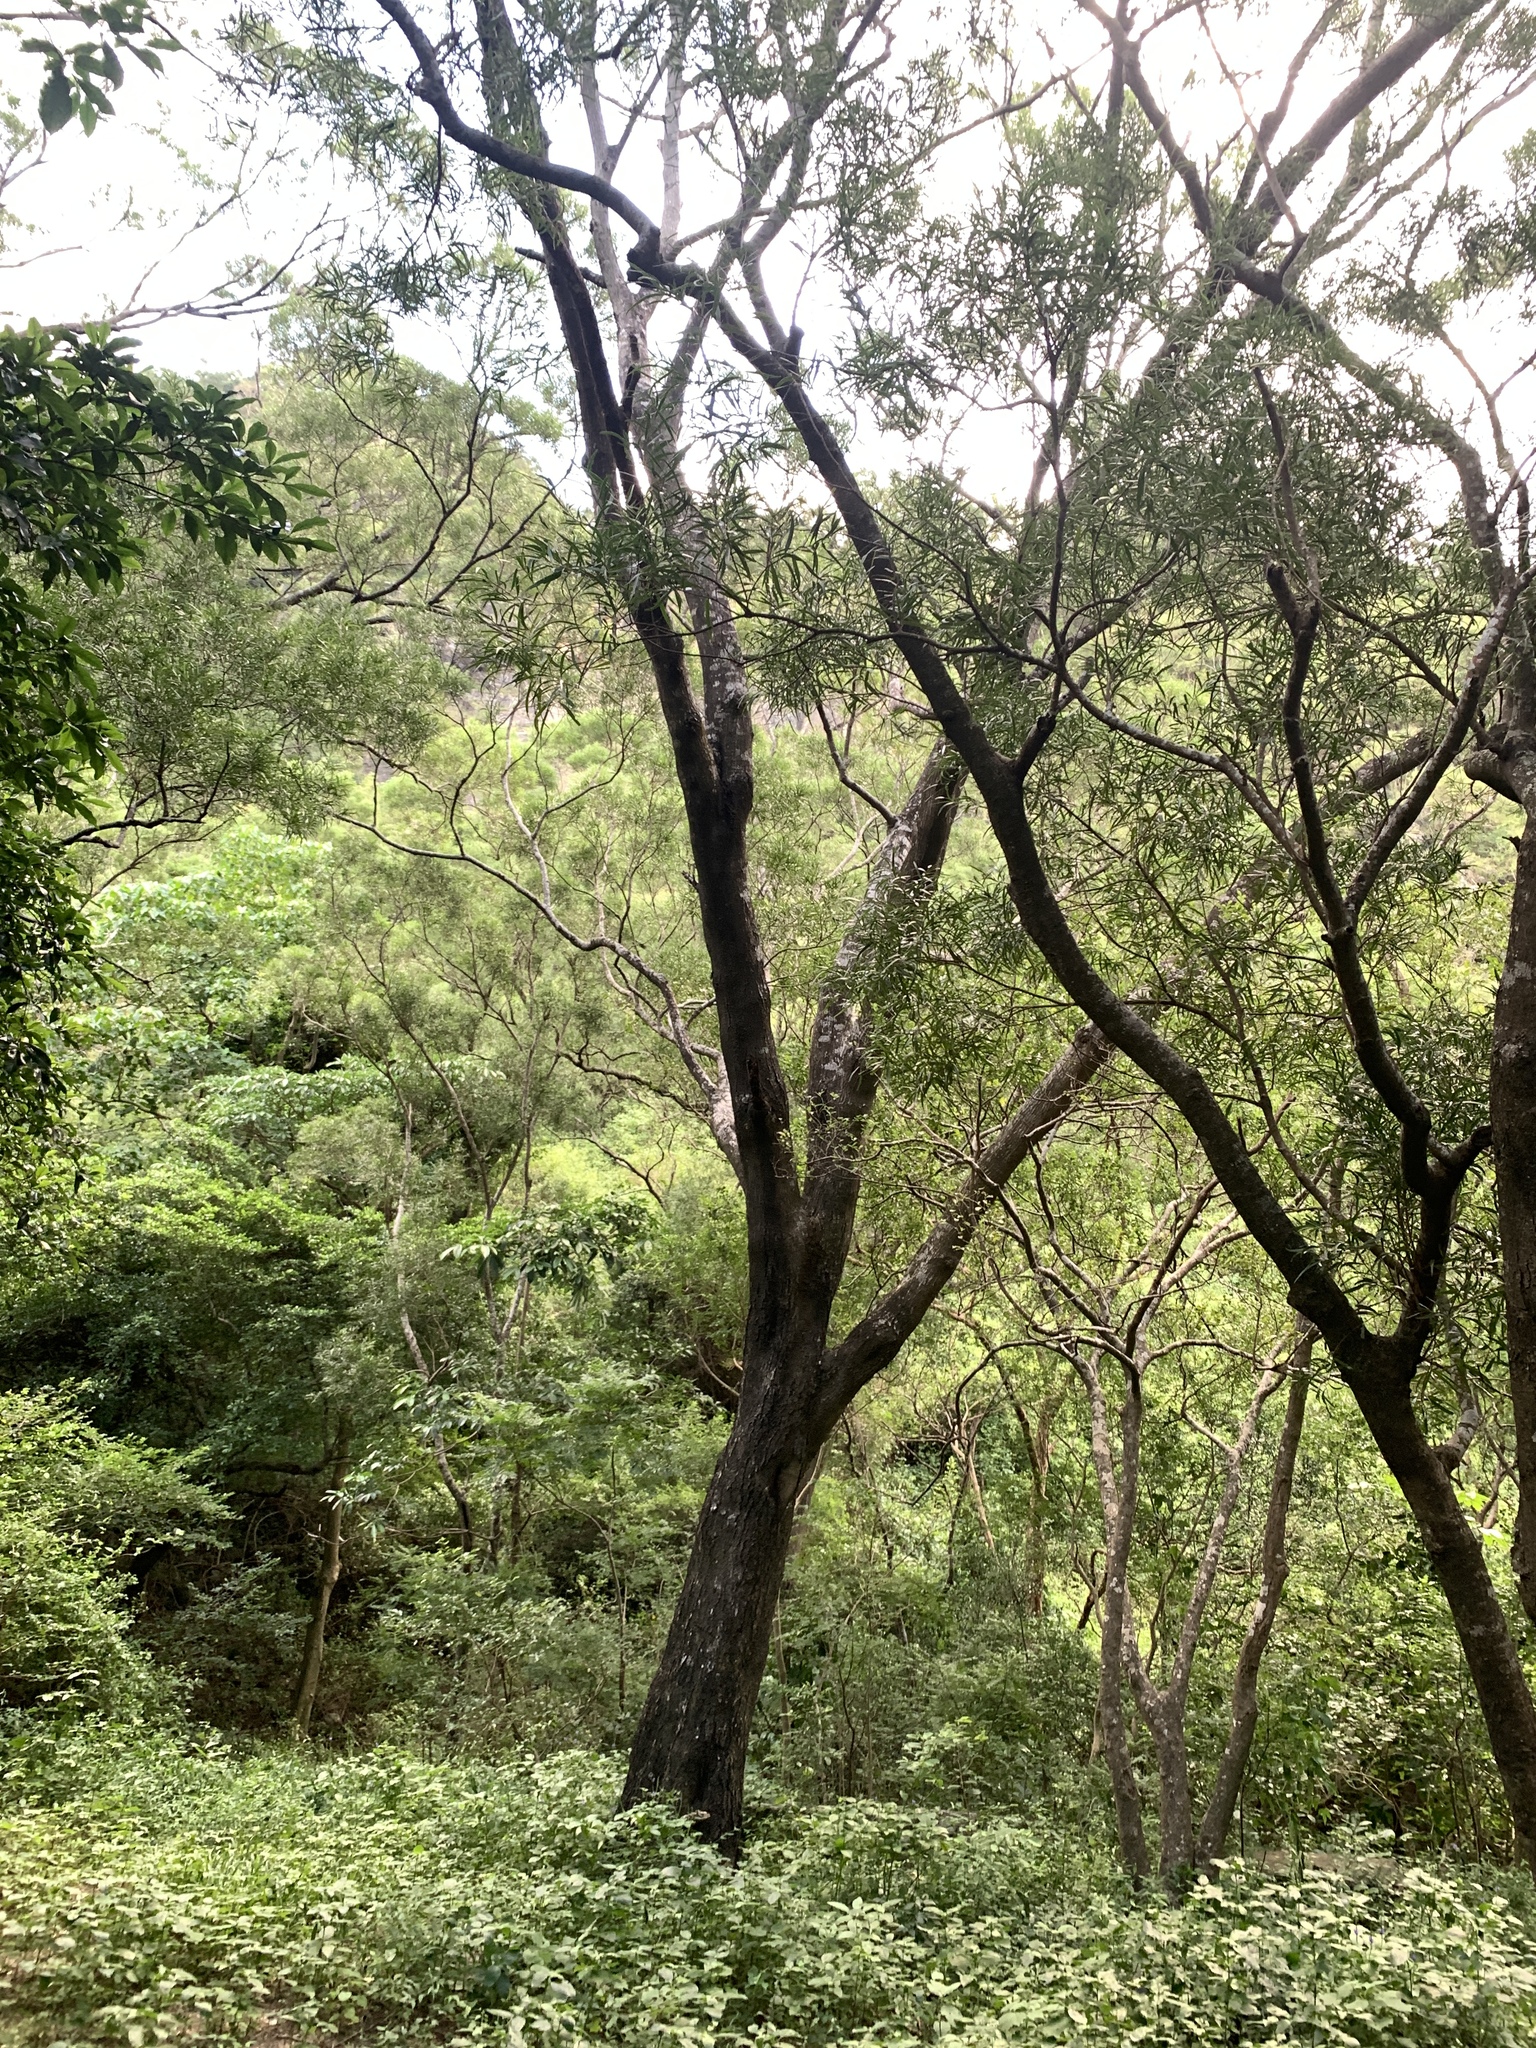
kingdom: Plantae
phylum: Tracheophyta
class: Magnoliopsida
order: Fabales
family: Fabaceae
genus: Acacia
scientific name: Acacia confusa
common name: Formosan koa
